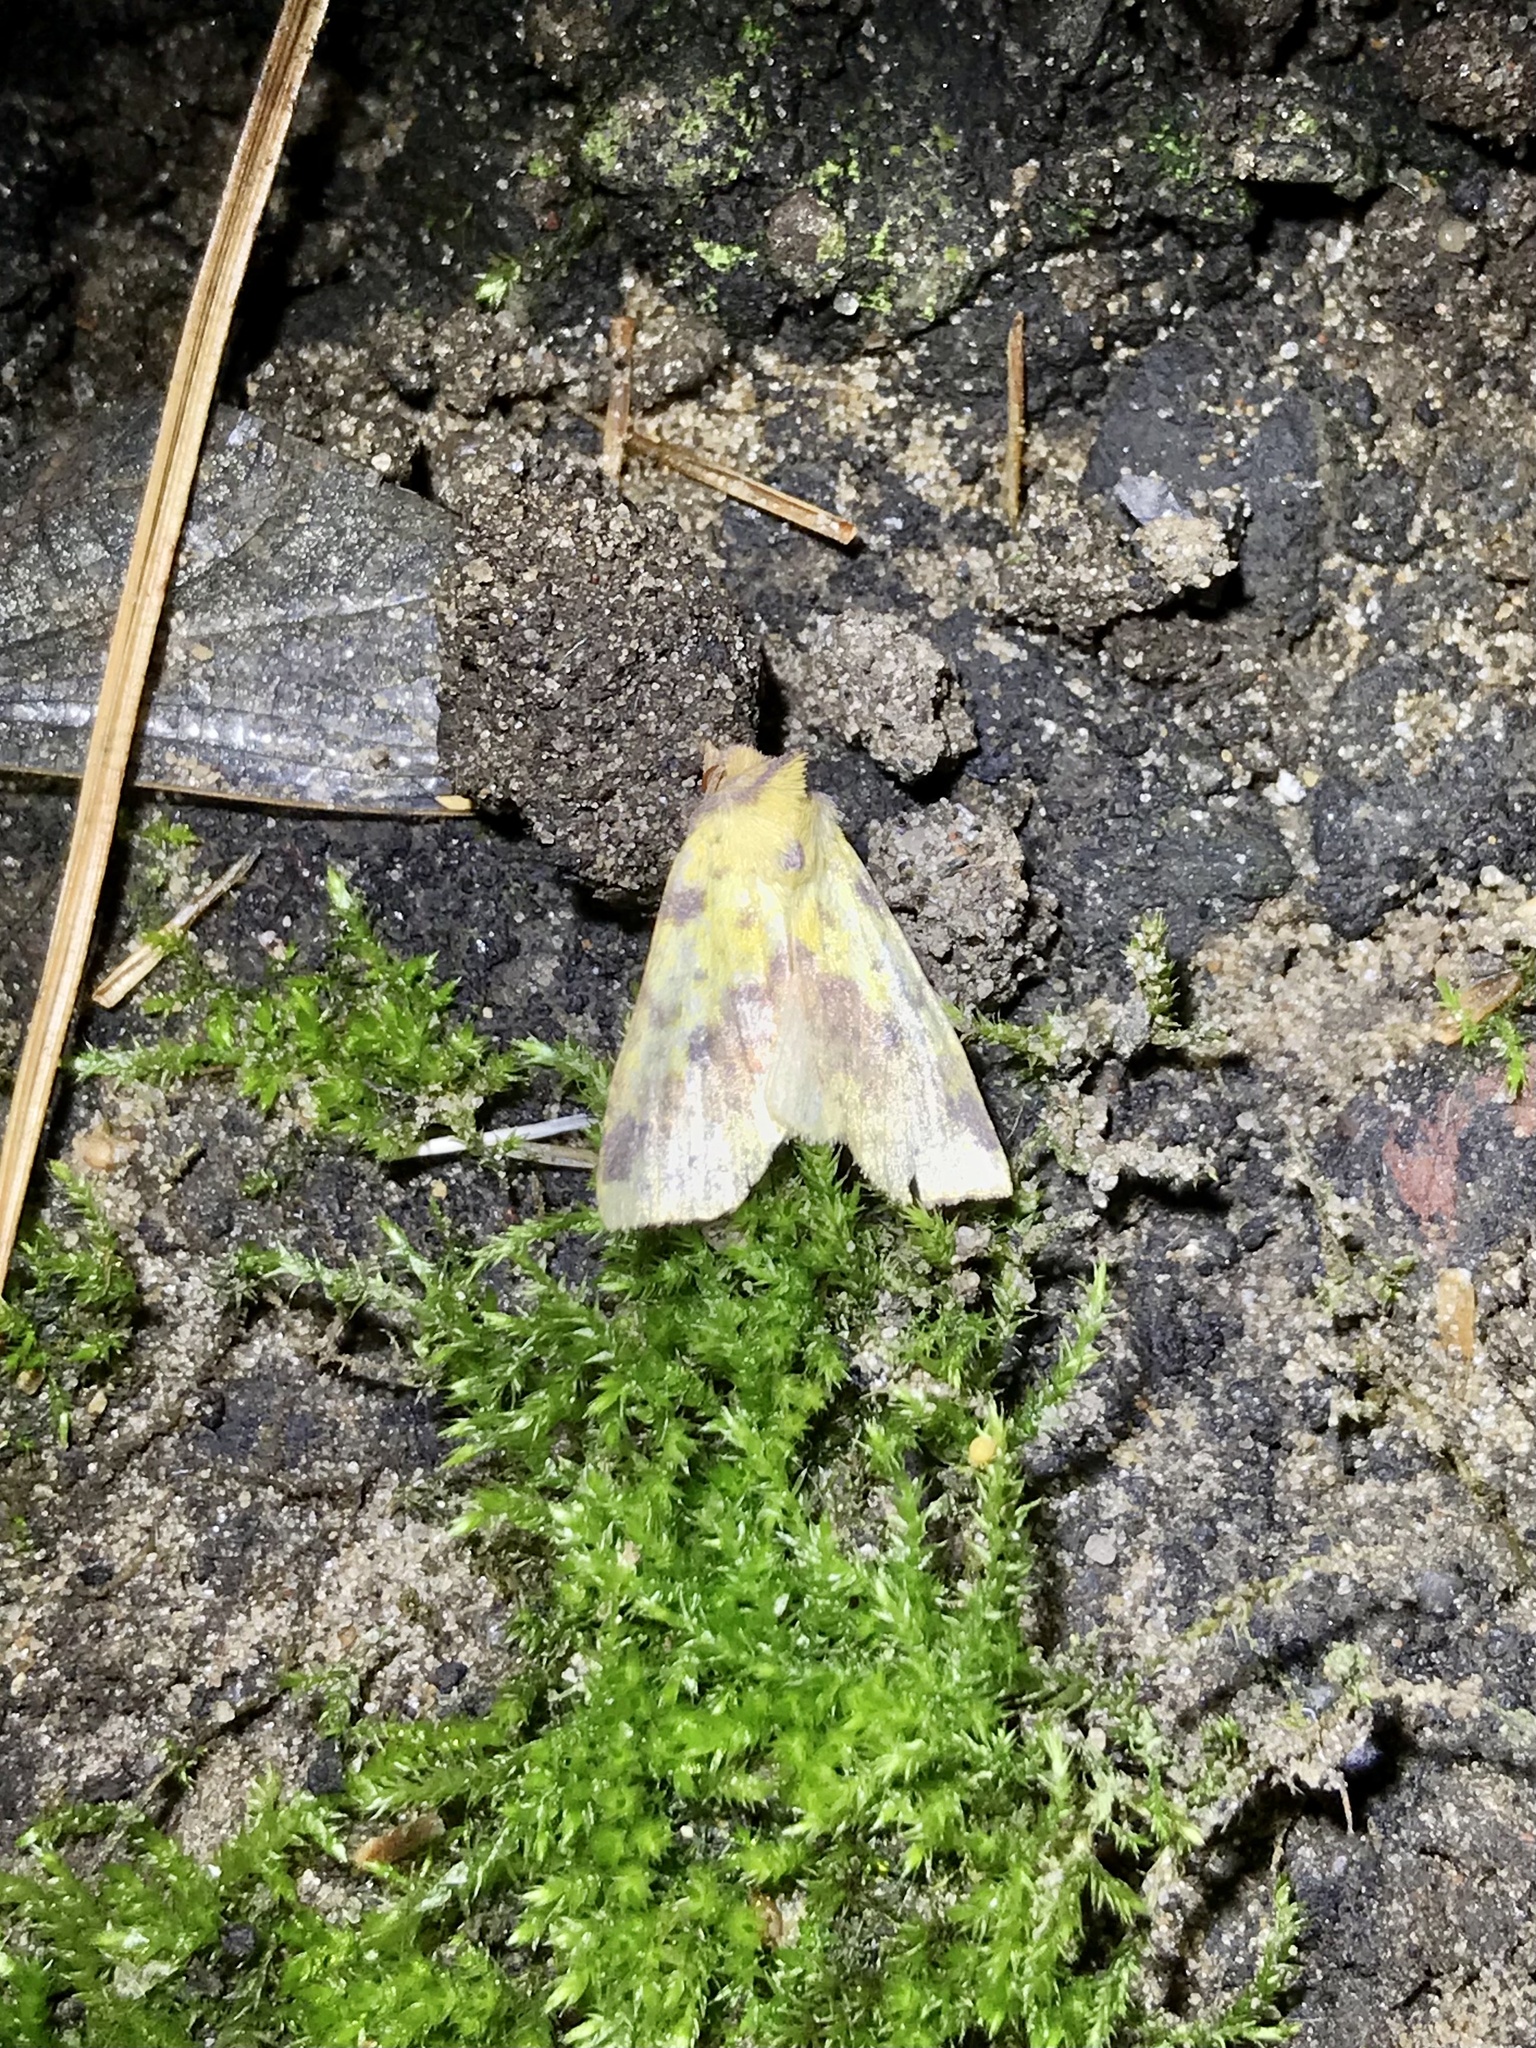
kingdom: Animalia
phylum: Arthropoda
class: Insecta
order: Lepidoptera
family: Noctuidae
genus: Xanthia
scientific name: Xanthia tatago
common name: Pink-banded sallow
